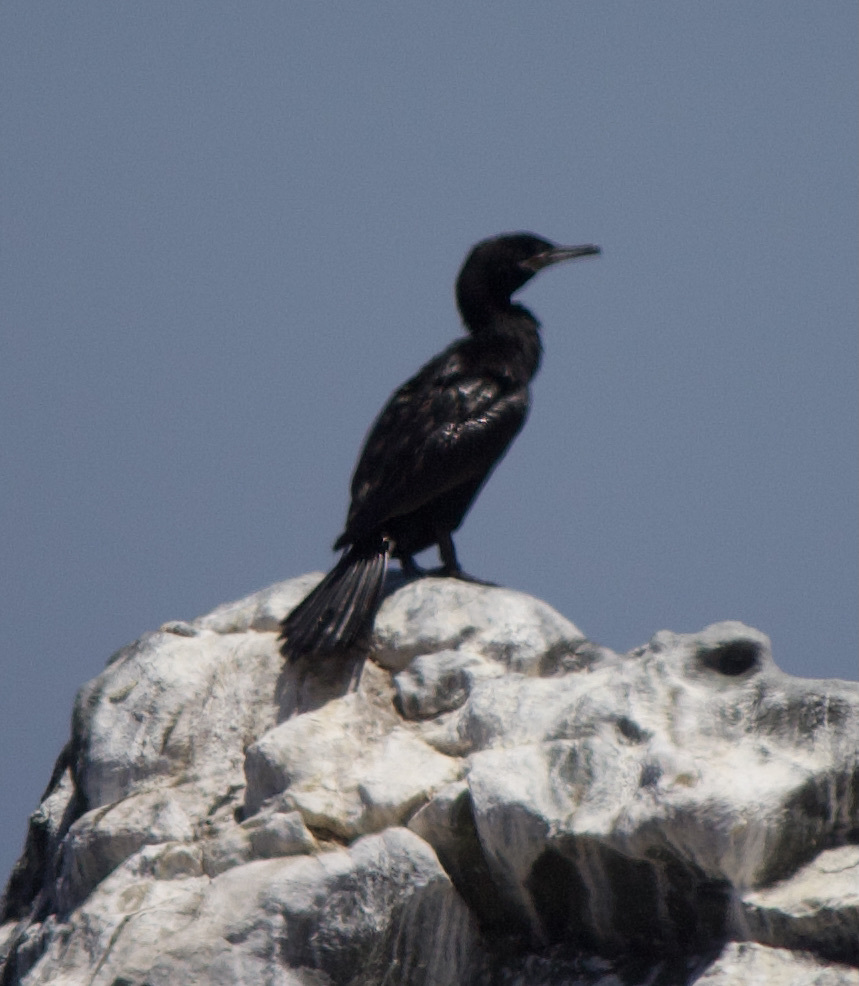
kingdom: Animalia
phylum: Chordata
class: Aves
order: Suliformes
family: Phalacrocoracidae
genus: Phalacrocorax
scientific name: Phalacrocorax brasilianus
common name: Neotropic cormorant
